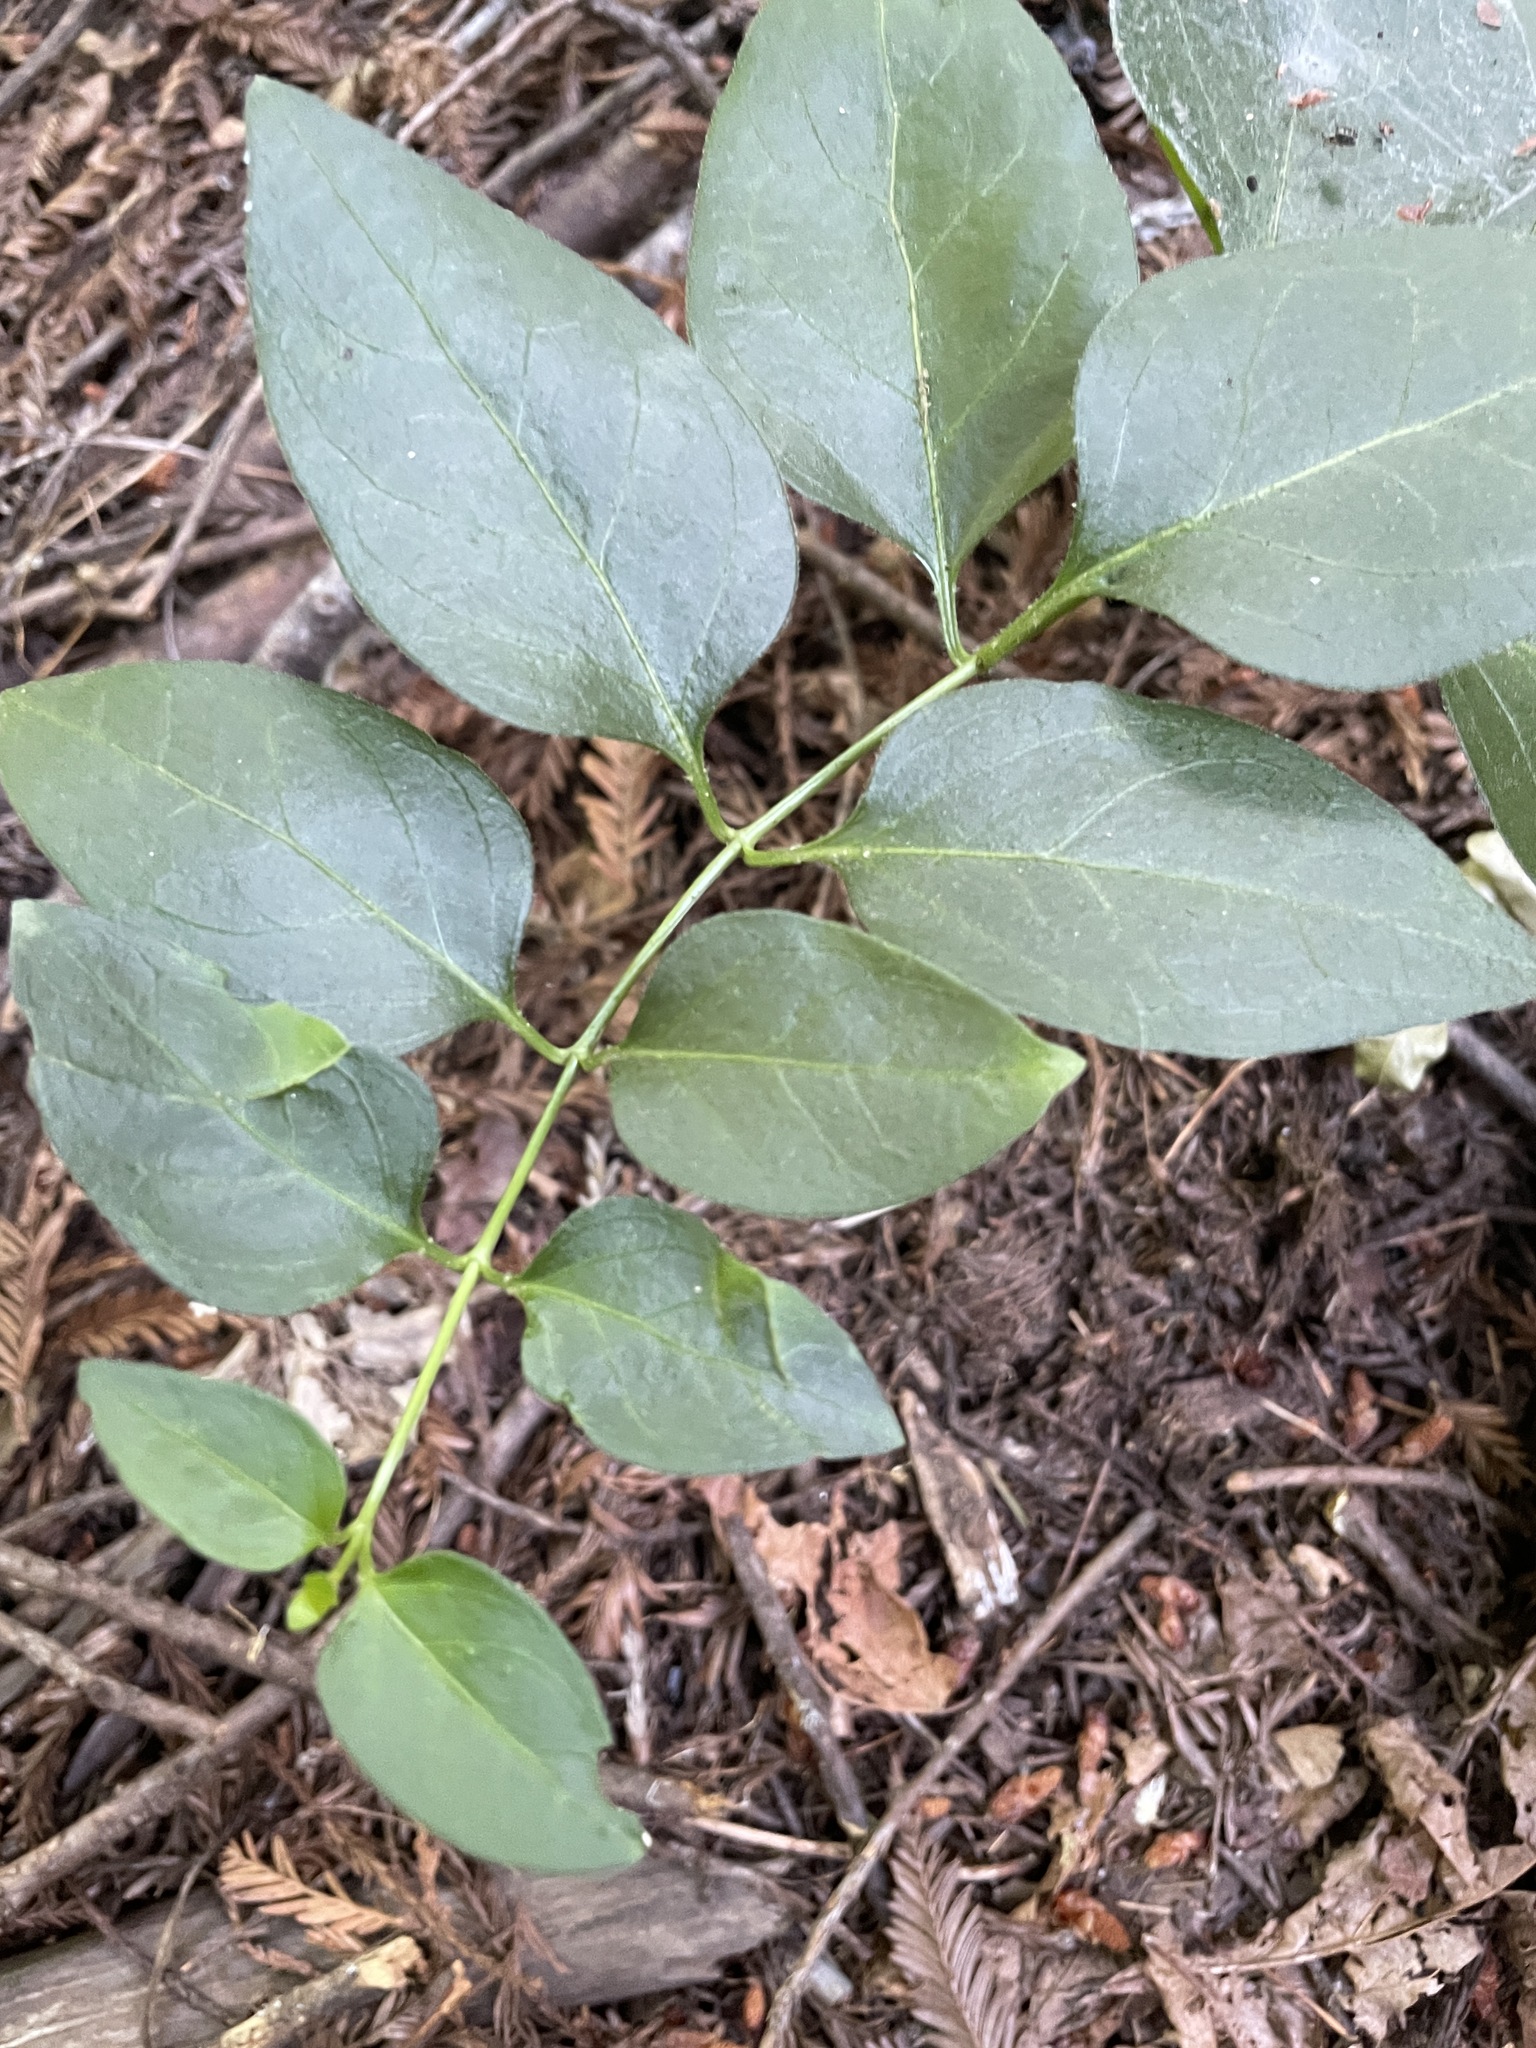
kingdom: Plantae
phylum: Tracheophyta
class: Magnoliopsida
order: Gentianales
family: Apocynaceae
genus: Vinca
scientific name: Vinca major
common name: Greater periwinkle
